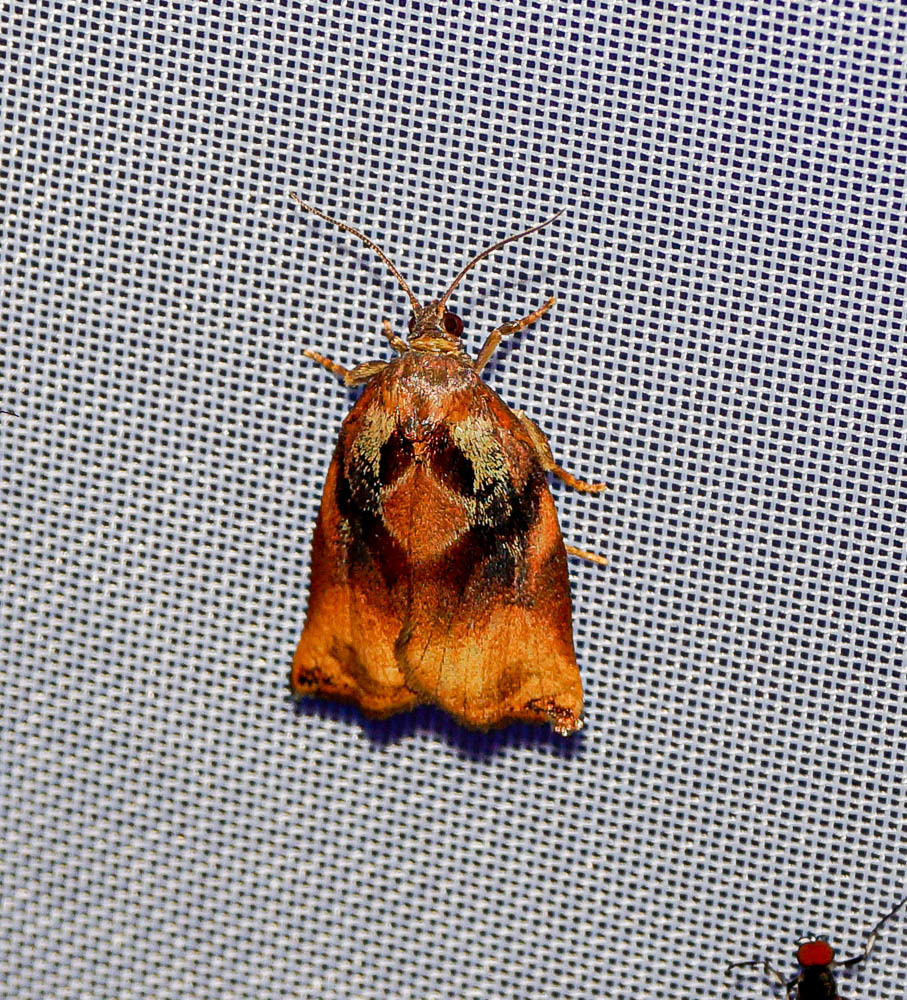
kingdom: Animalia
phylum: Arthropoda
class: Insecta
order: Lepidoptera
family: Tortricidae
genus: Archips
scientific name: Archips podana
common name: Large fruit-tree tortrix
